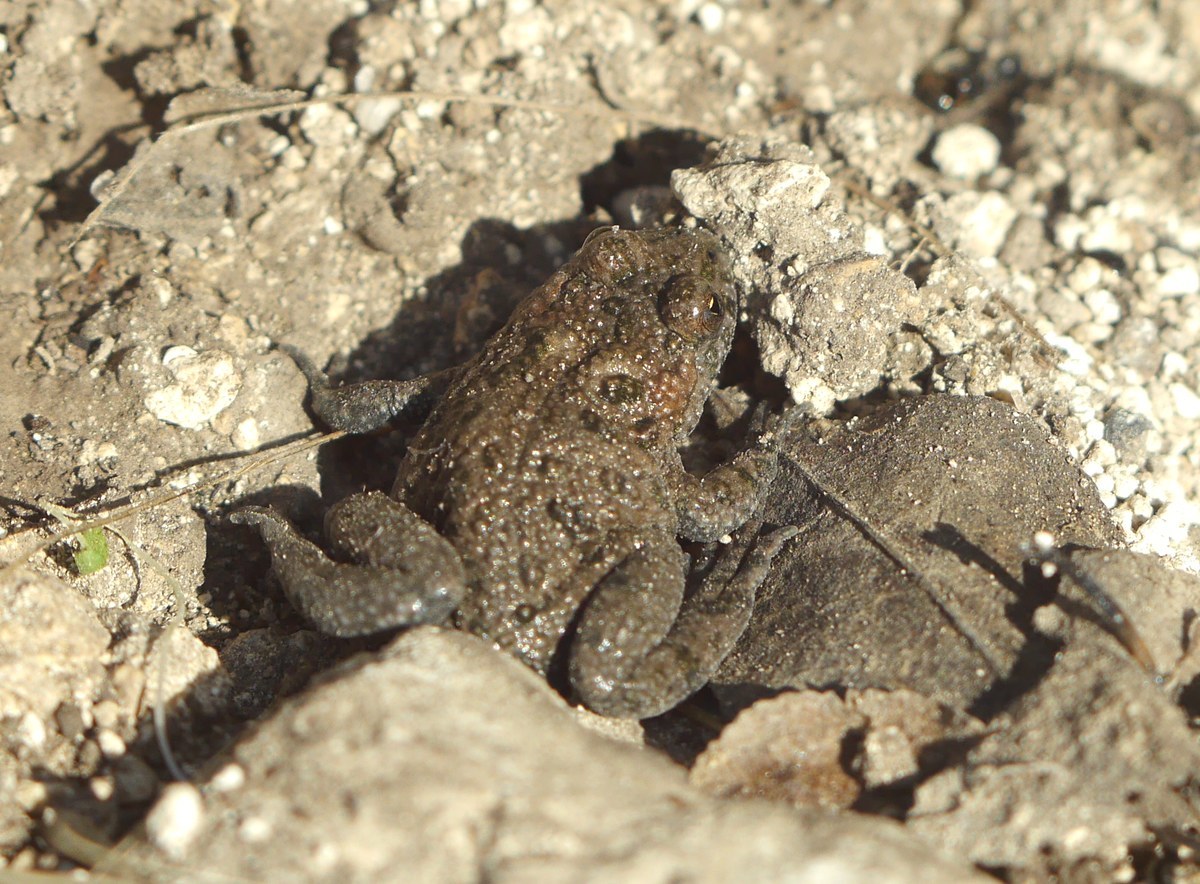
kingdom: Animalia
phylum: Chordata
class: Amphibia
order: Anura
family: Bombinatoridae
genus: Bombina
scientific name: Bombina bombina
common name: Fire-bellied toad
